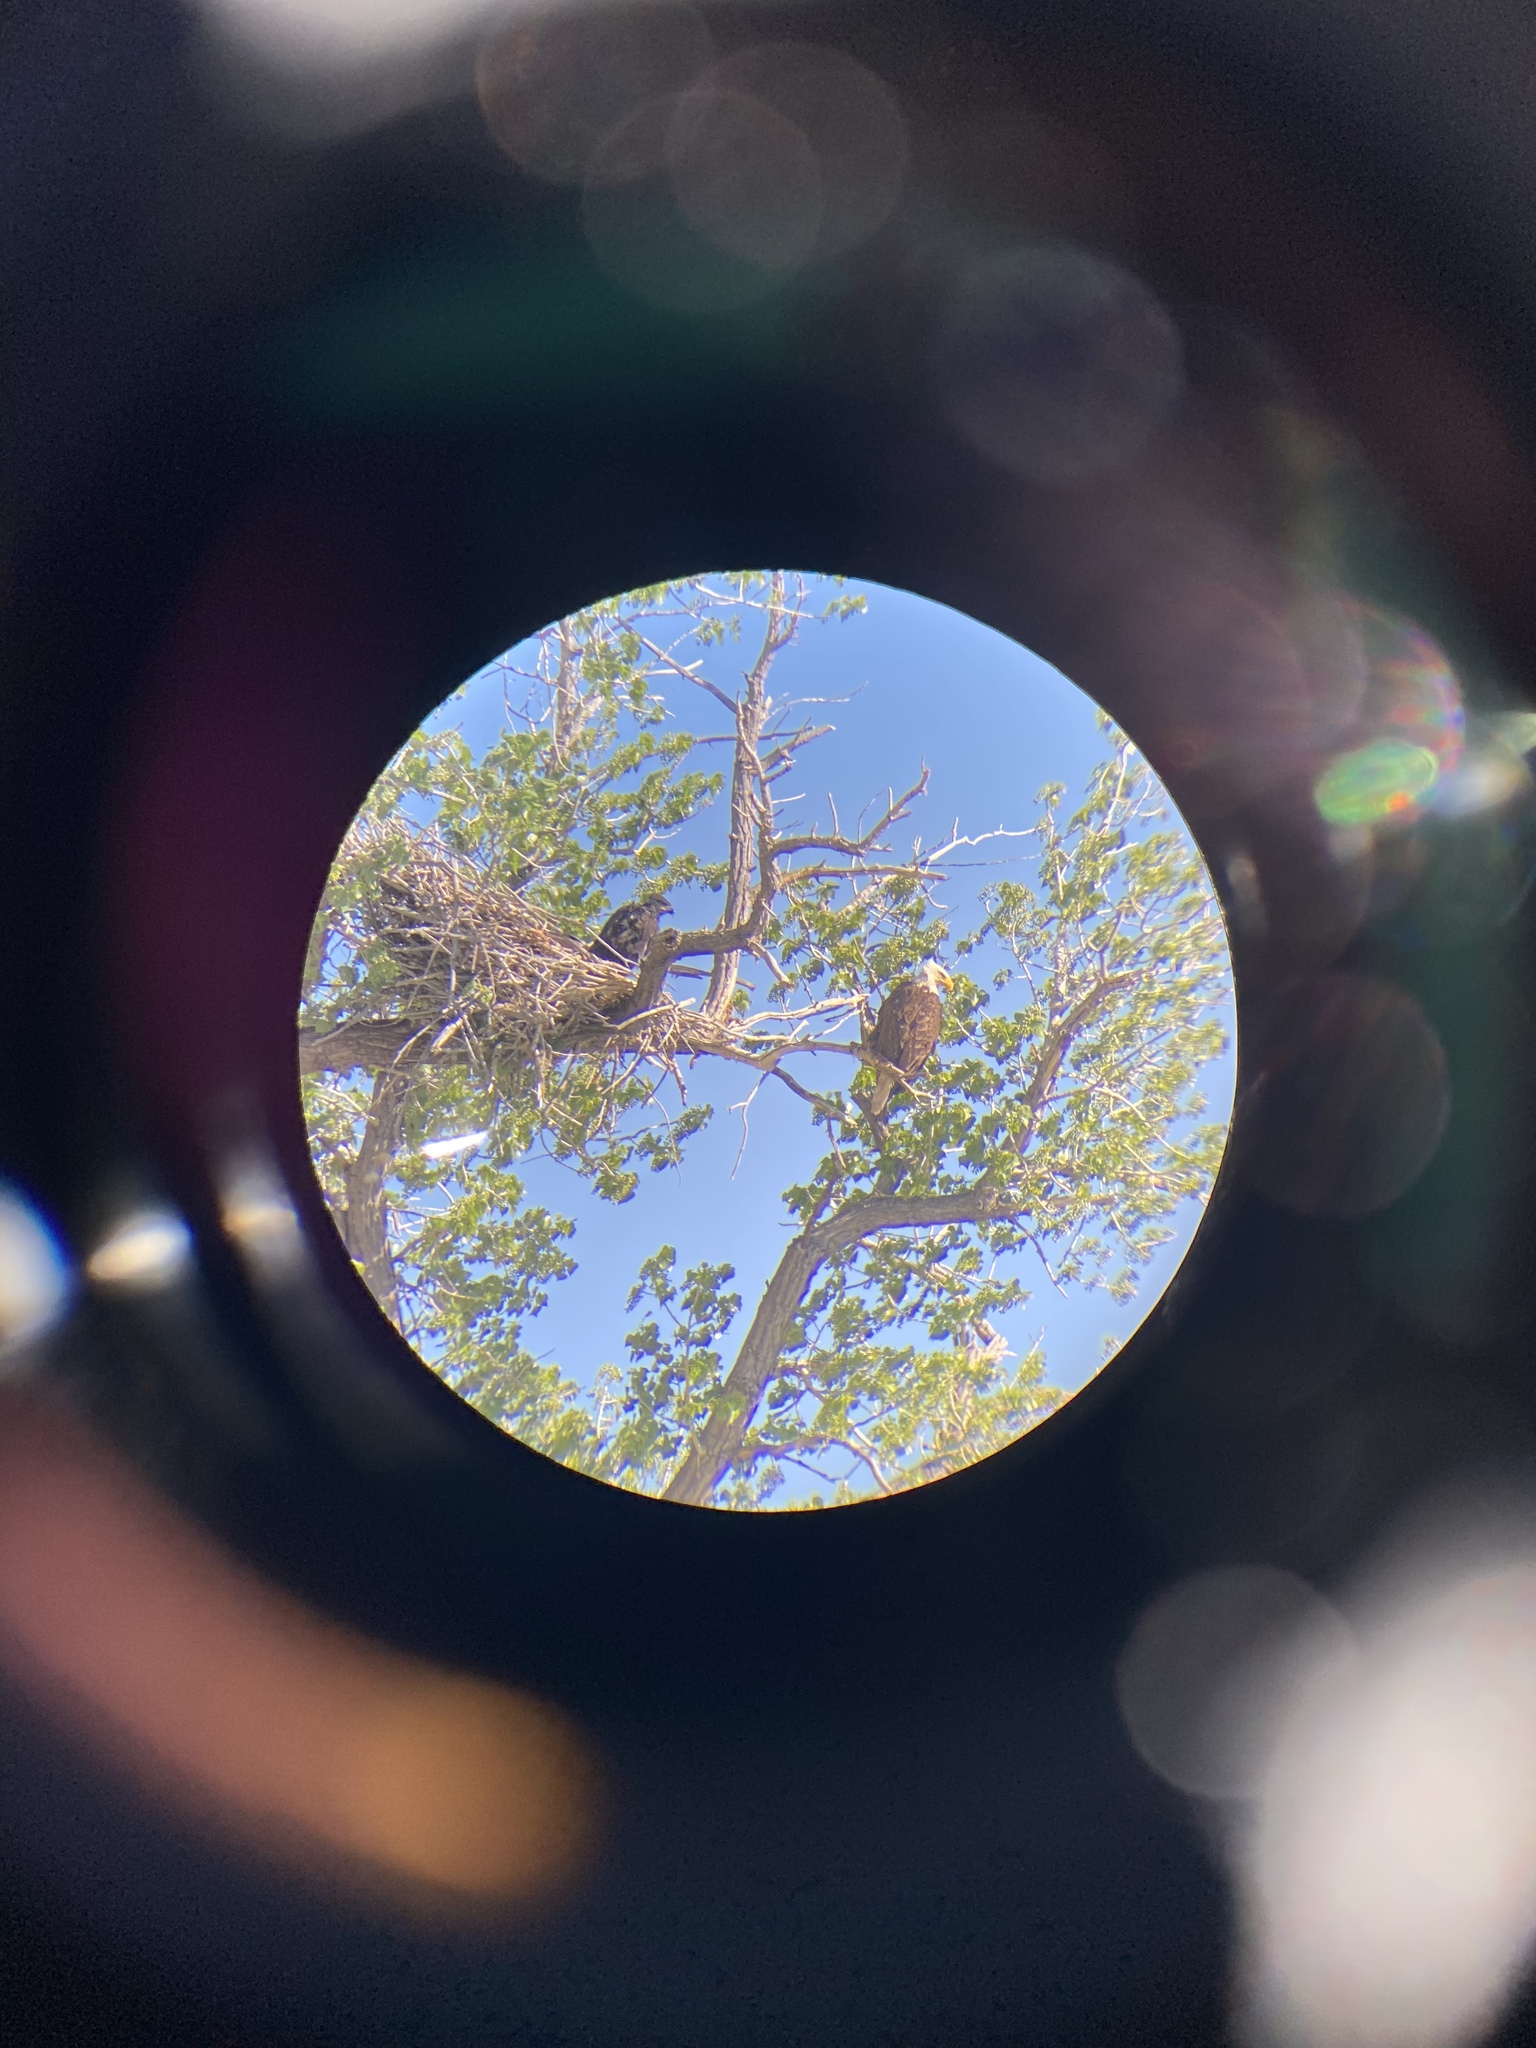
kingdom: Animalia
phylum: Chordata
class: Aves
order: Accipitriformes
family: Accipitridae
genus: Haliaeetus
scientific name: Haliaeetus leucocephalus
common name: Bald eagle
